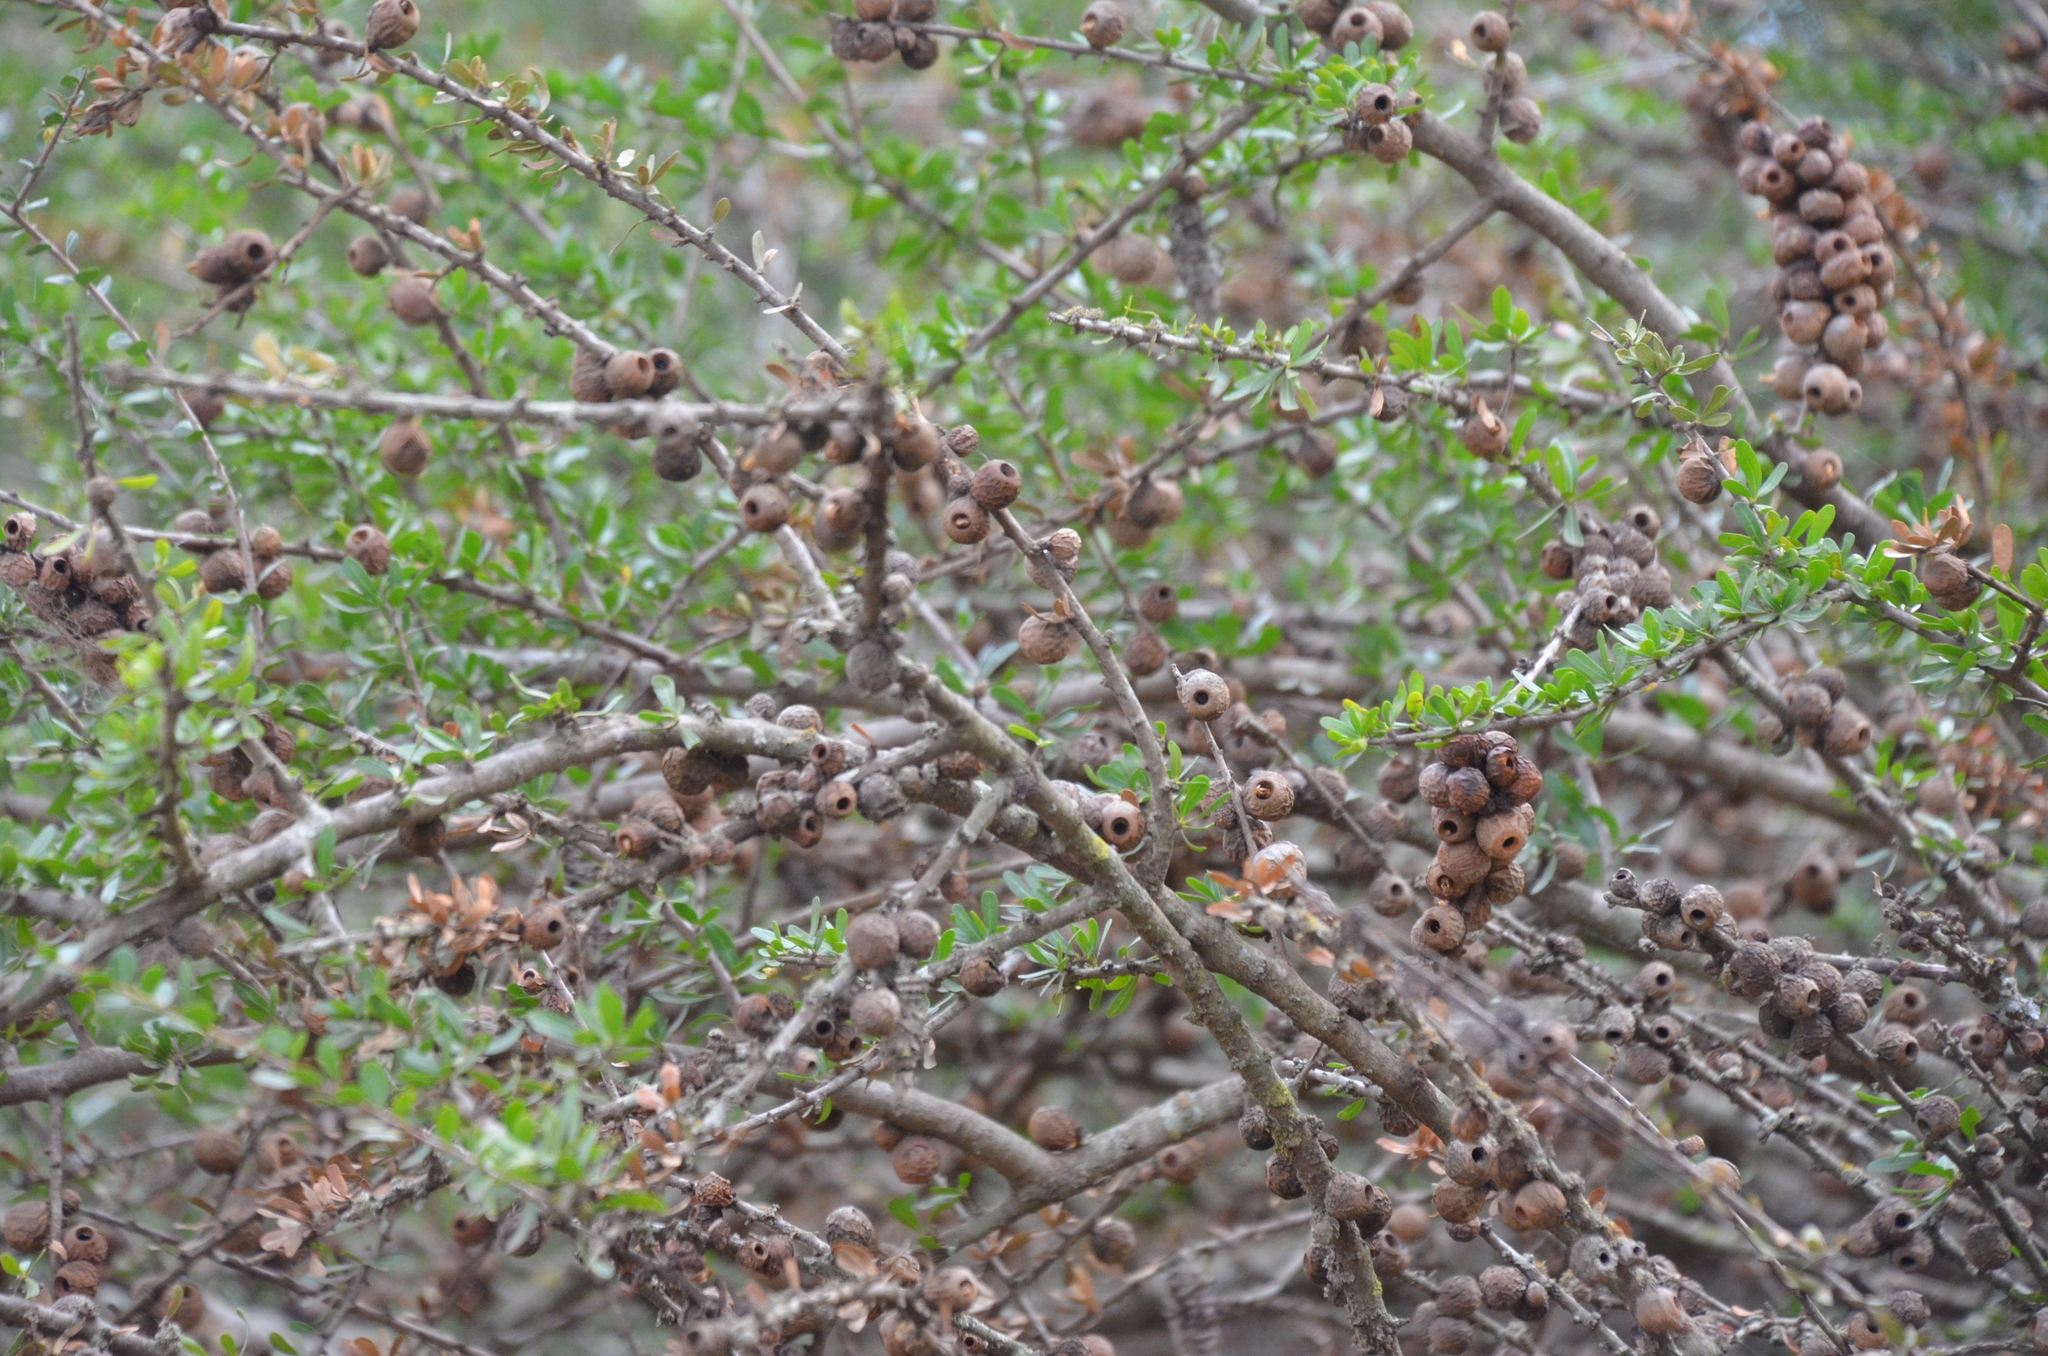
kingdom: Plantae
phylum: Tracheophyta
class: Magnoliopsida
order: Sapindales
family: Anacardiaceae
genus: Schinus
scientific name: Schinus fasciculata
